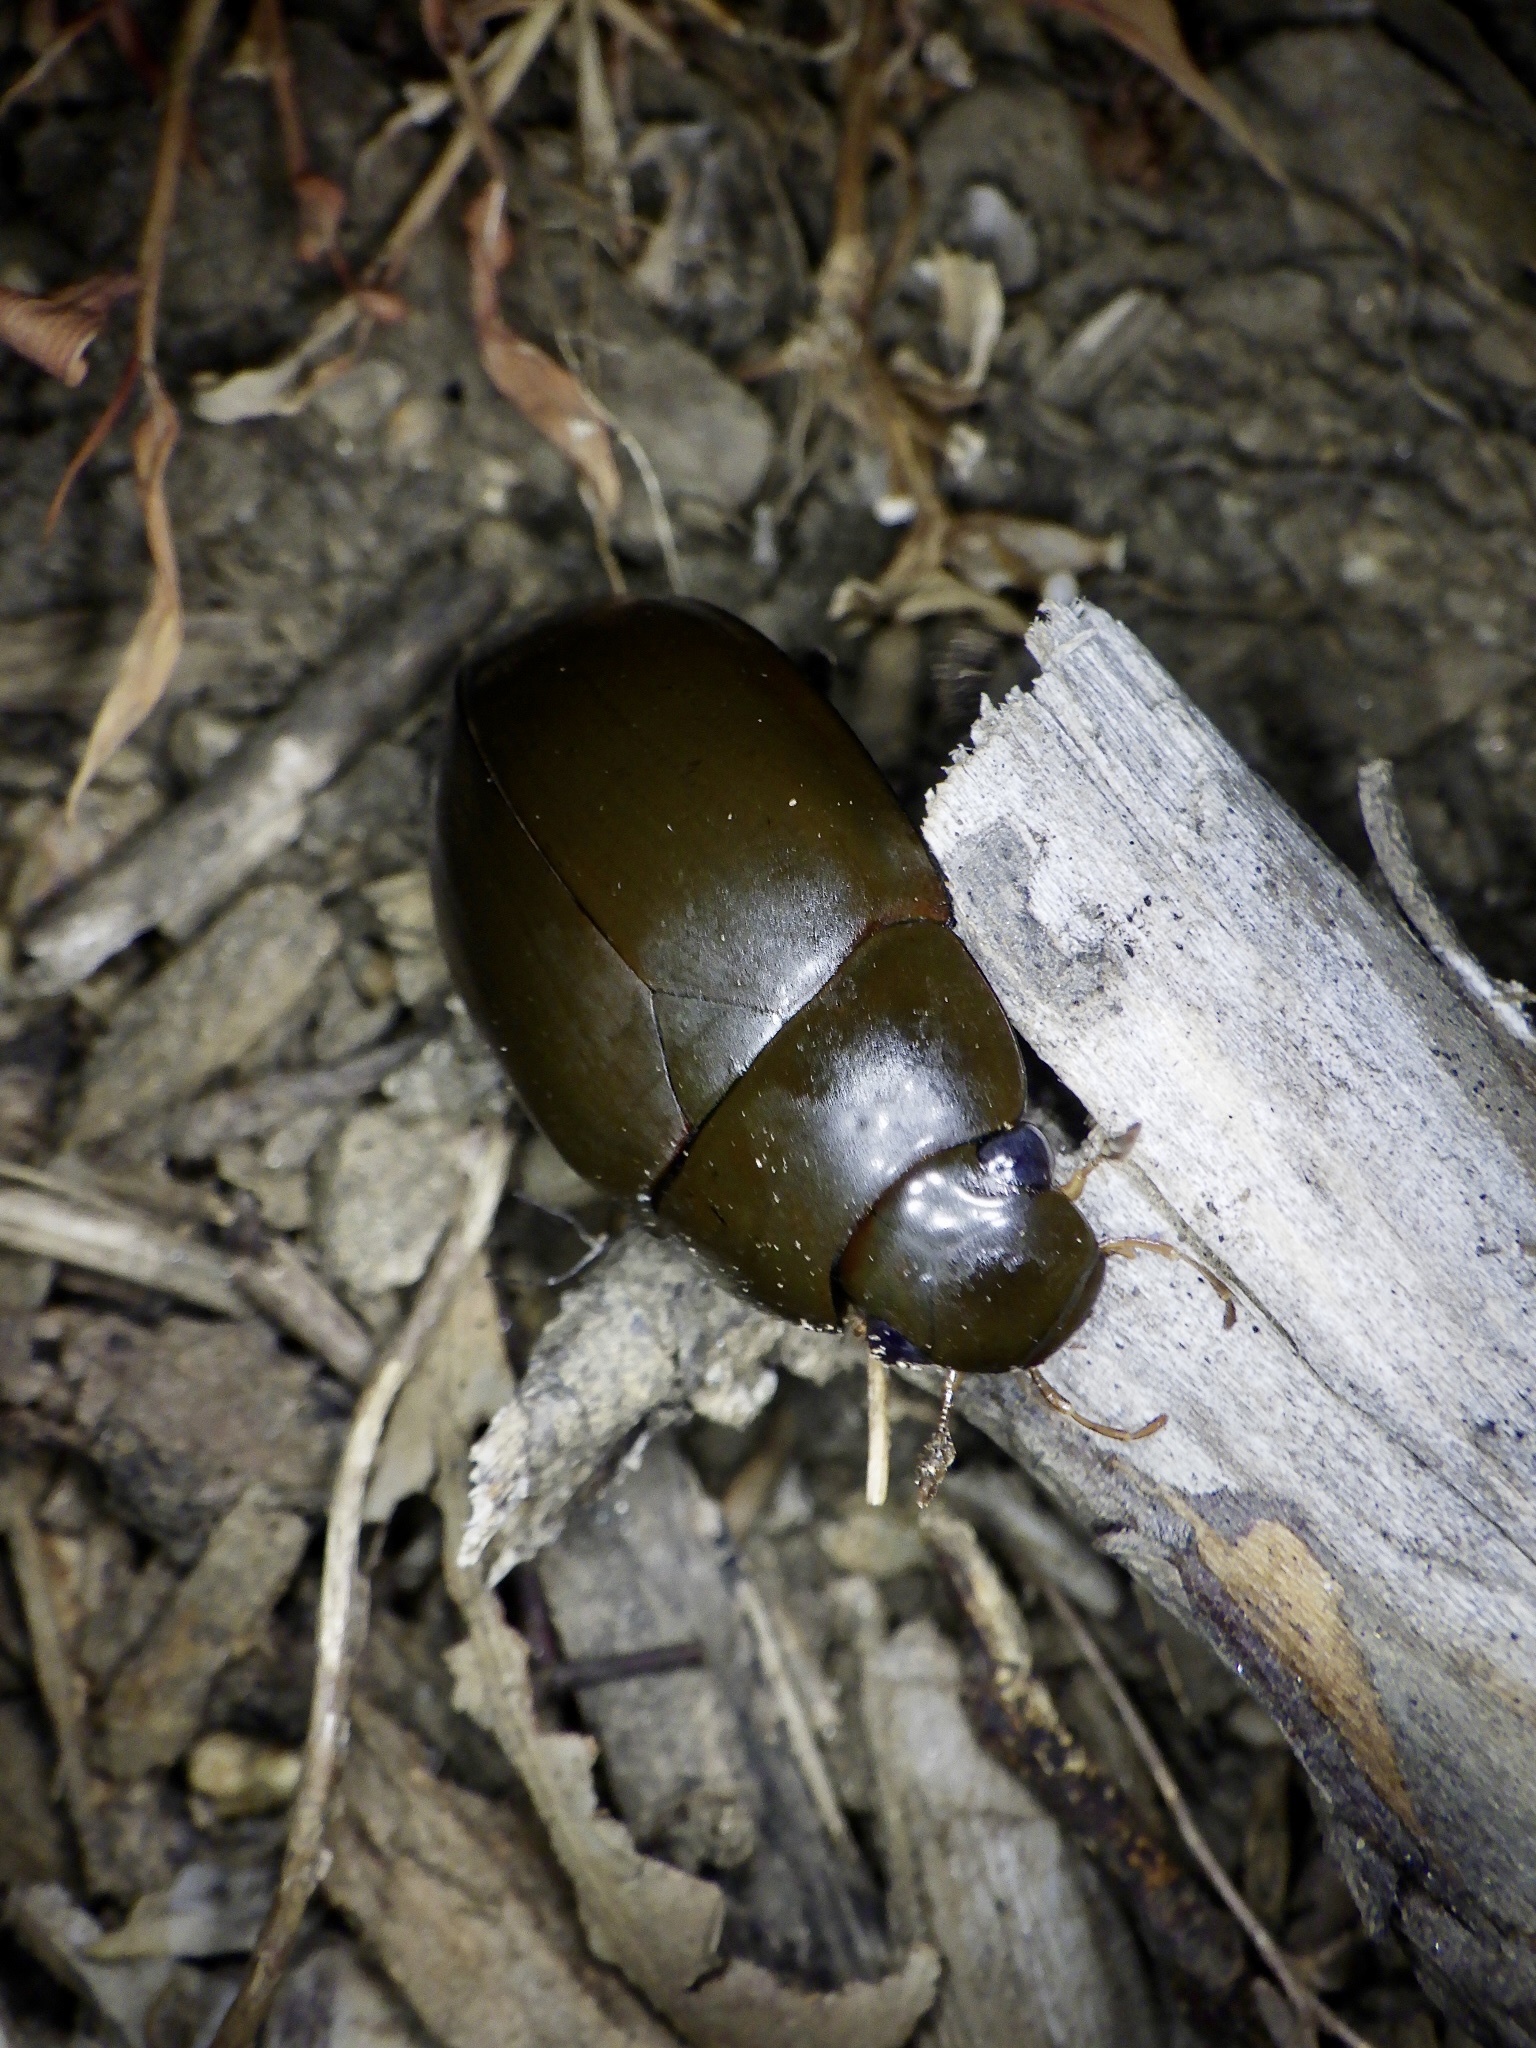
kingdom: Animalia
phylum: Arthropoda
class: Insecta
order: Coleoptera
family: Hydrophilidae
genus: Hydrophilus
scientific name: Hydrophilus acuminatus
